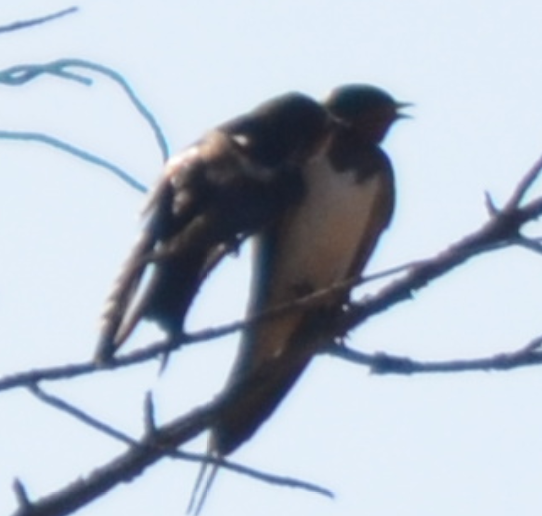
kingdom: Animalia
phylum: Chordata
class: Aves
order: Passeriformes
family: Hirundinidae
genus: Hirundo
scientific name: Hirundo rustica
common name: Barn swallow
